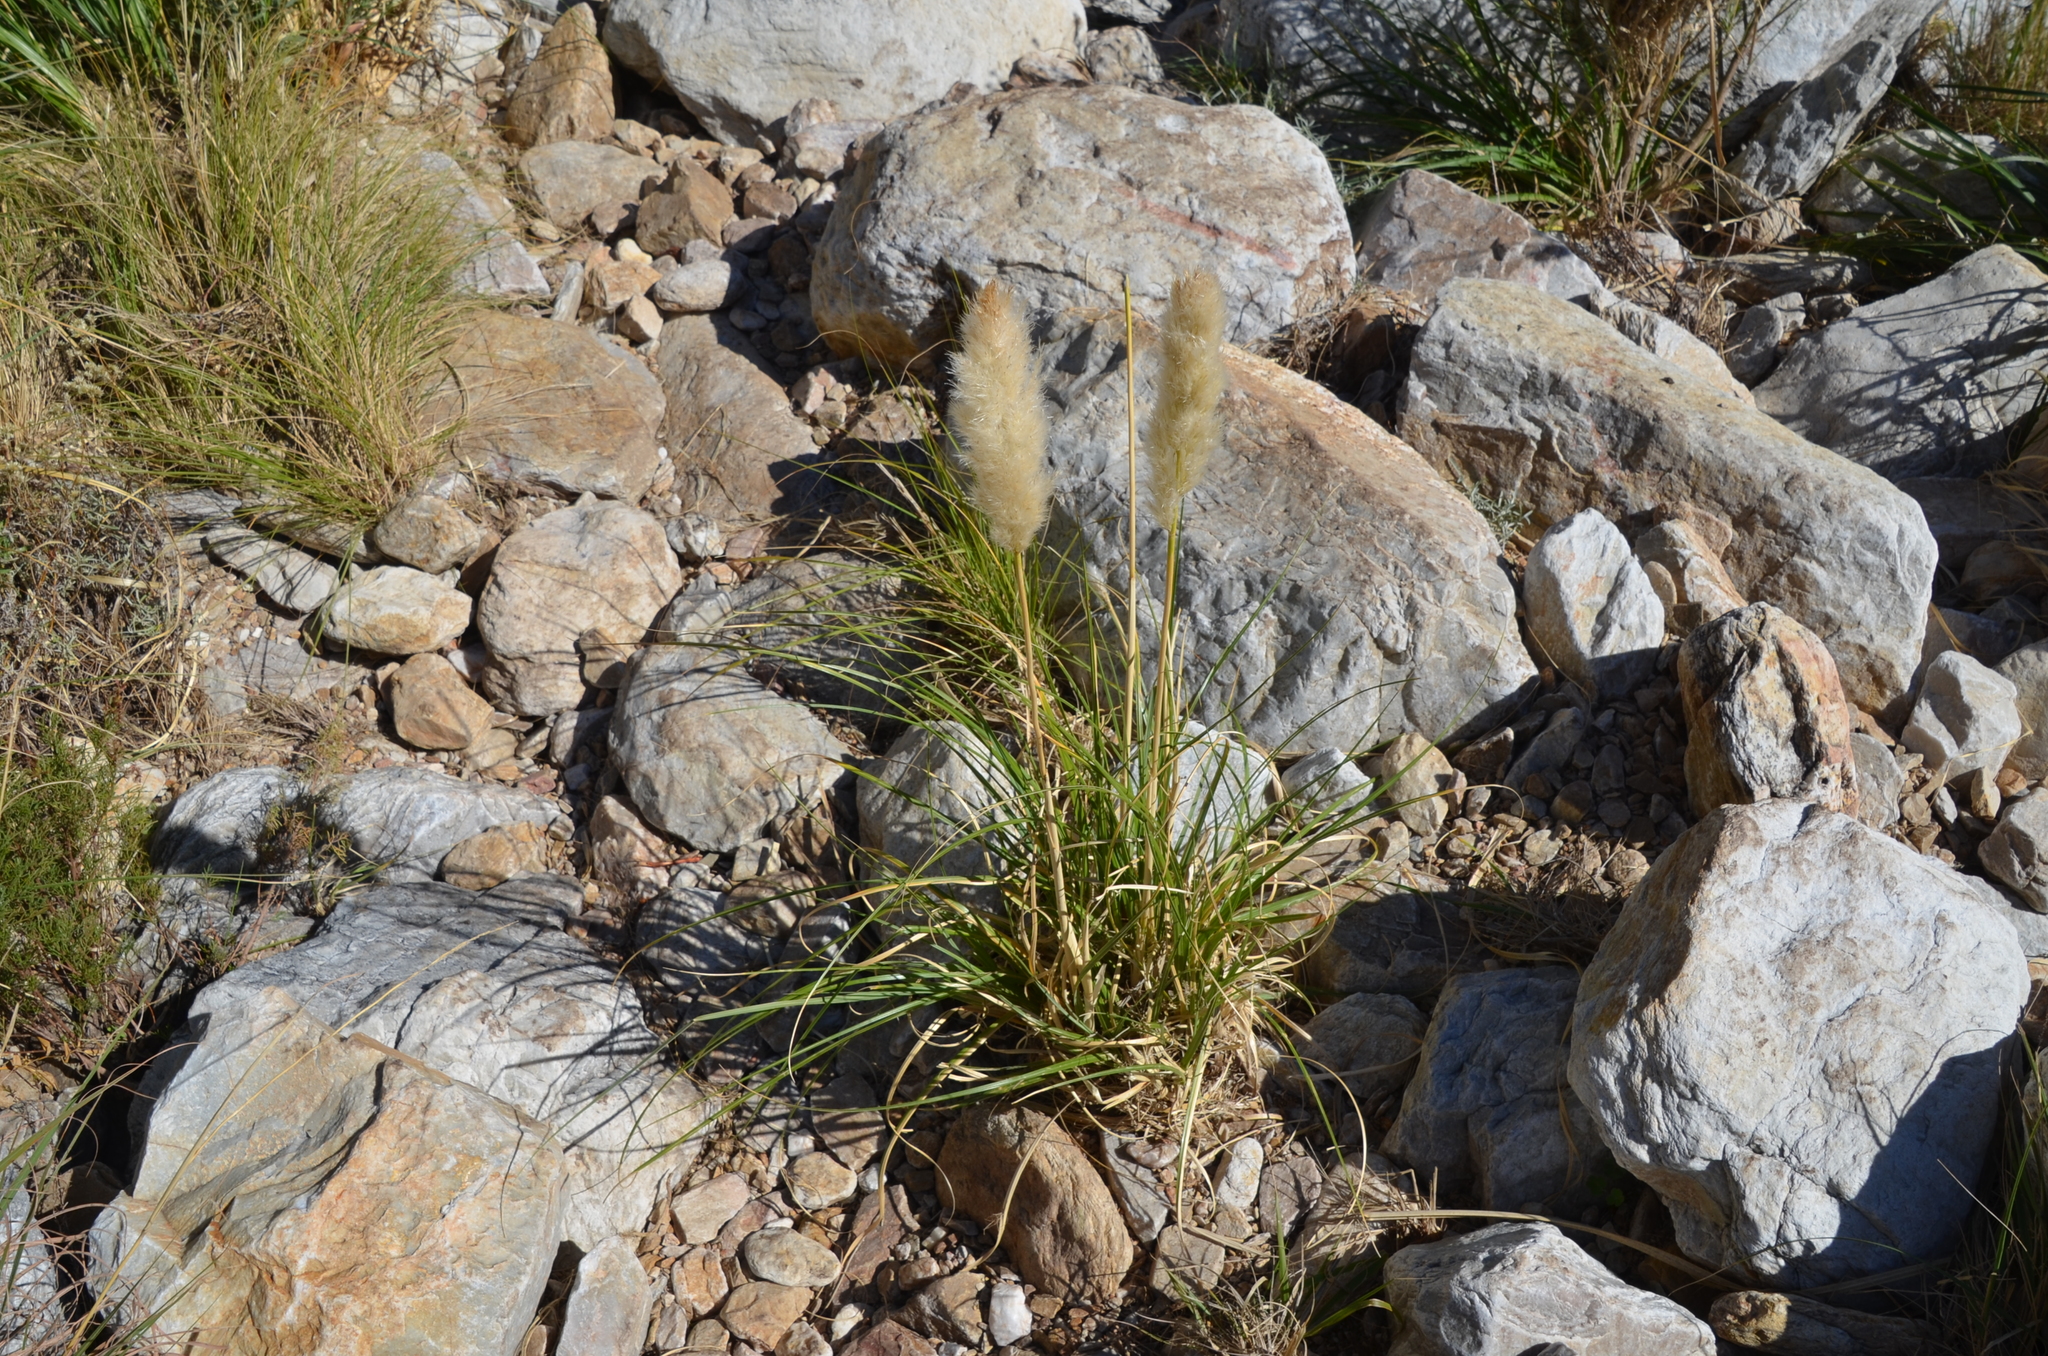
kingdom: Plantae
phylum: Tracheophyta
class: Liliopsida
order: Poales
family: Poaceae
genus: Cortaderia
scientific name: Cortaderia selloana
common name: Uruguayan pampas grass
